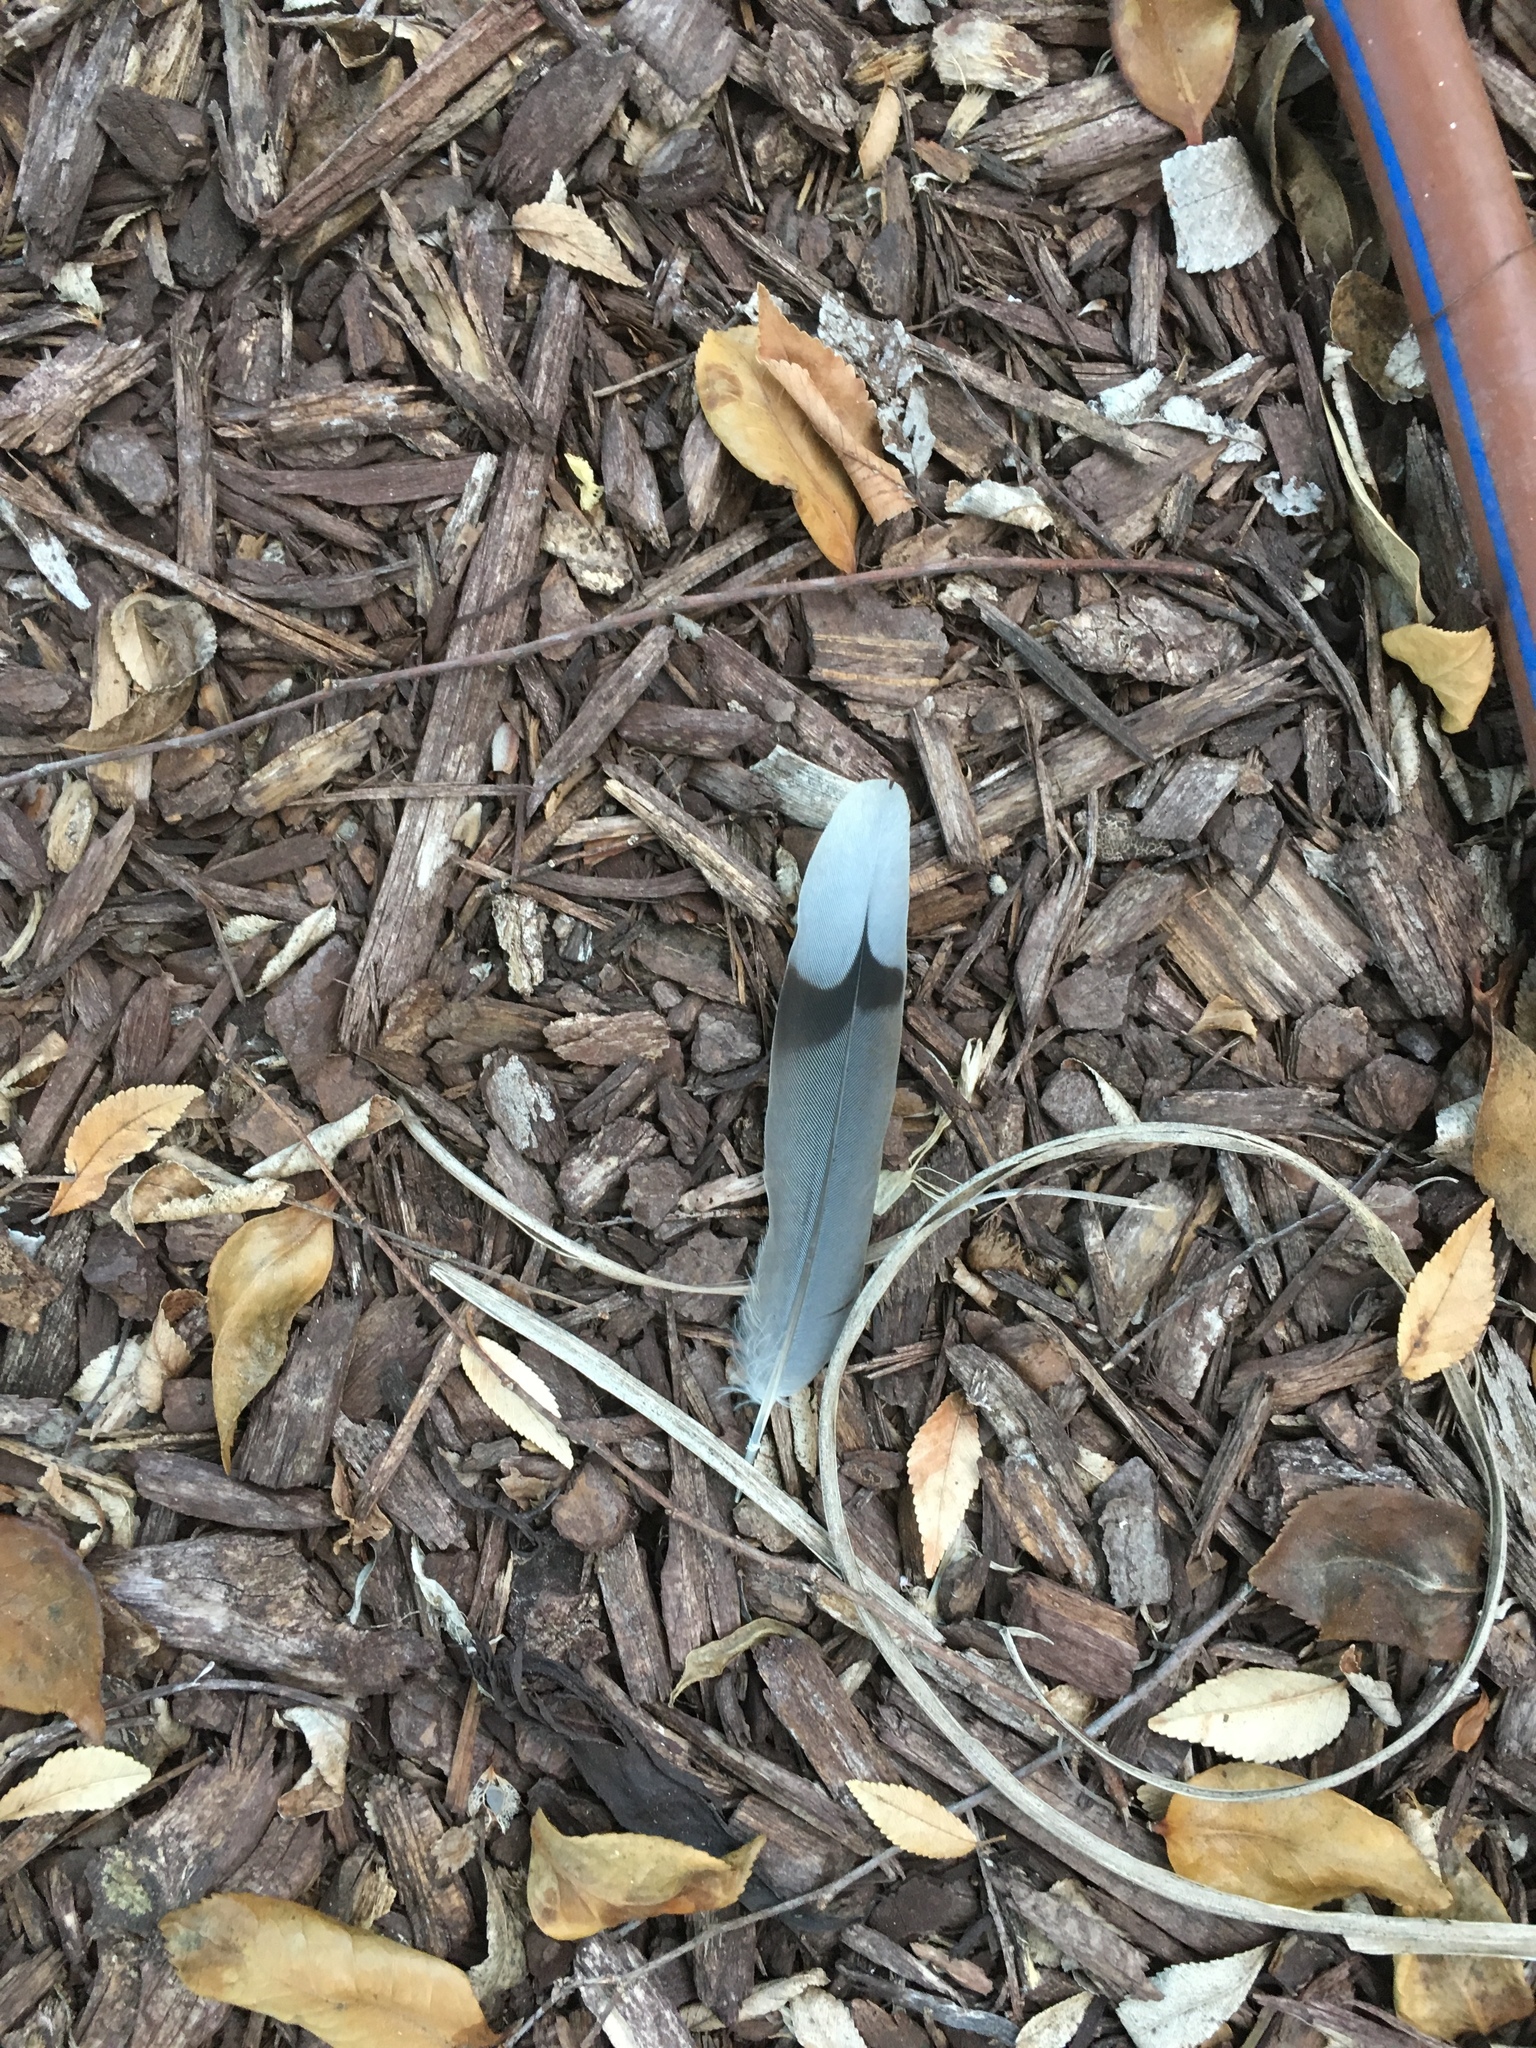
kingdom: Animalia
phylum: Chordata
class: Aves
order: Columbiformes
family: Columbidae
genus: Zenaida
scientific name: Zenaida macroura
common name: Mourning dove
